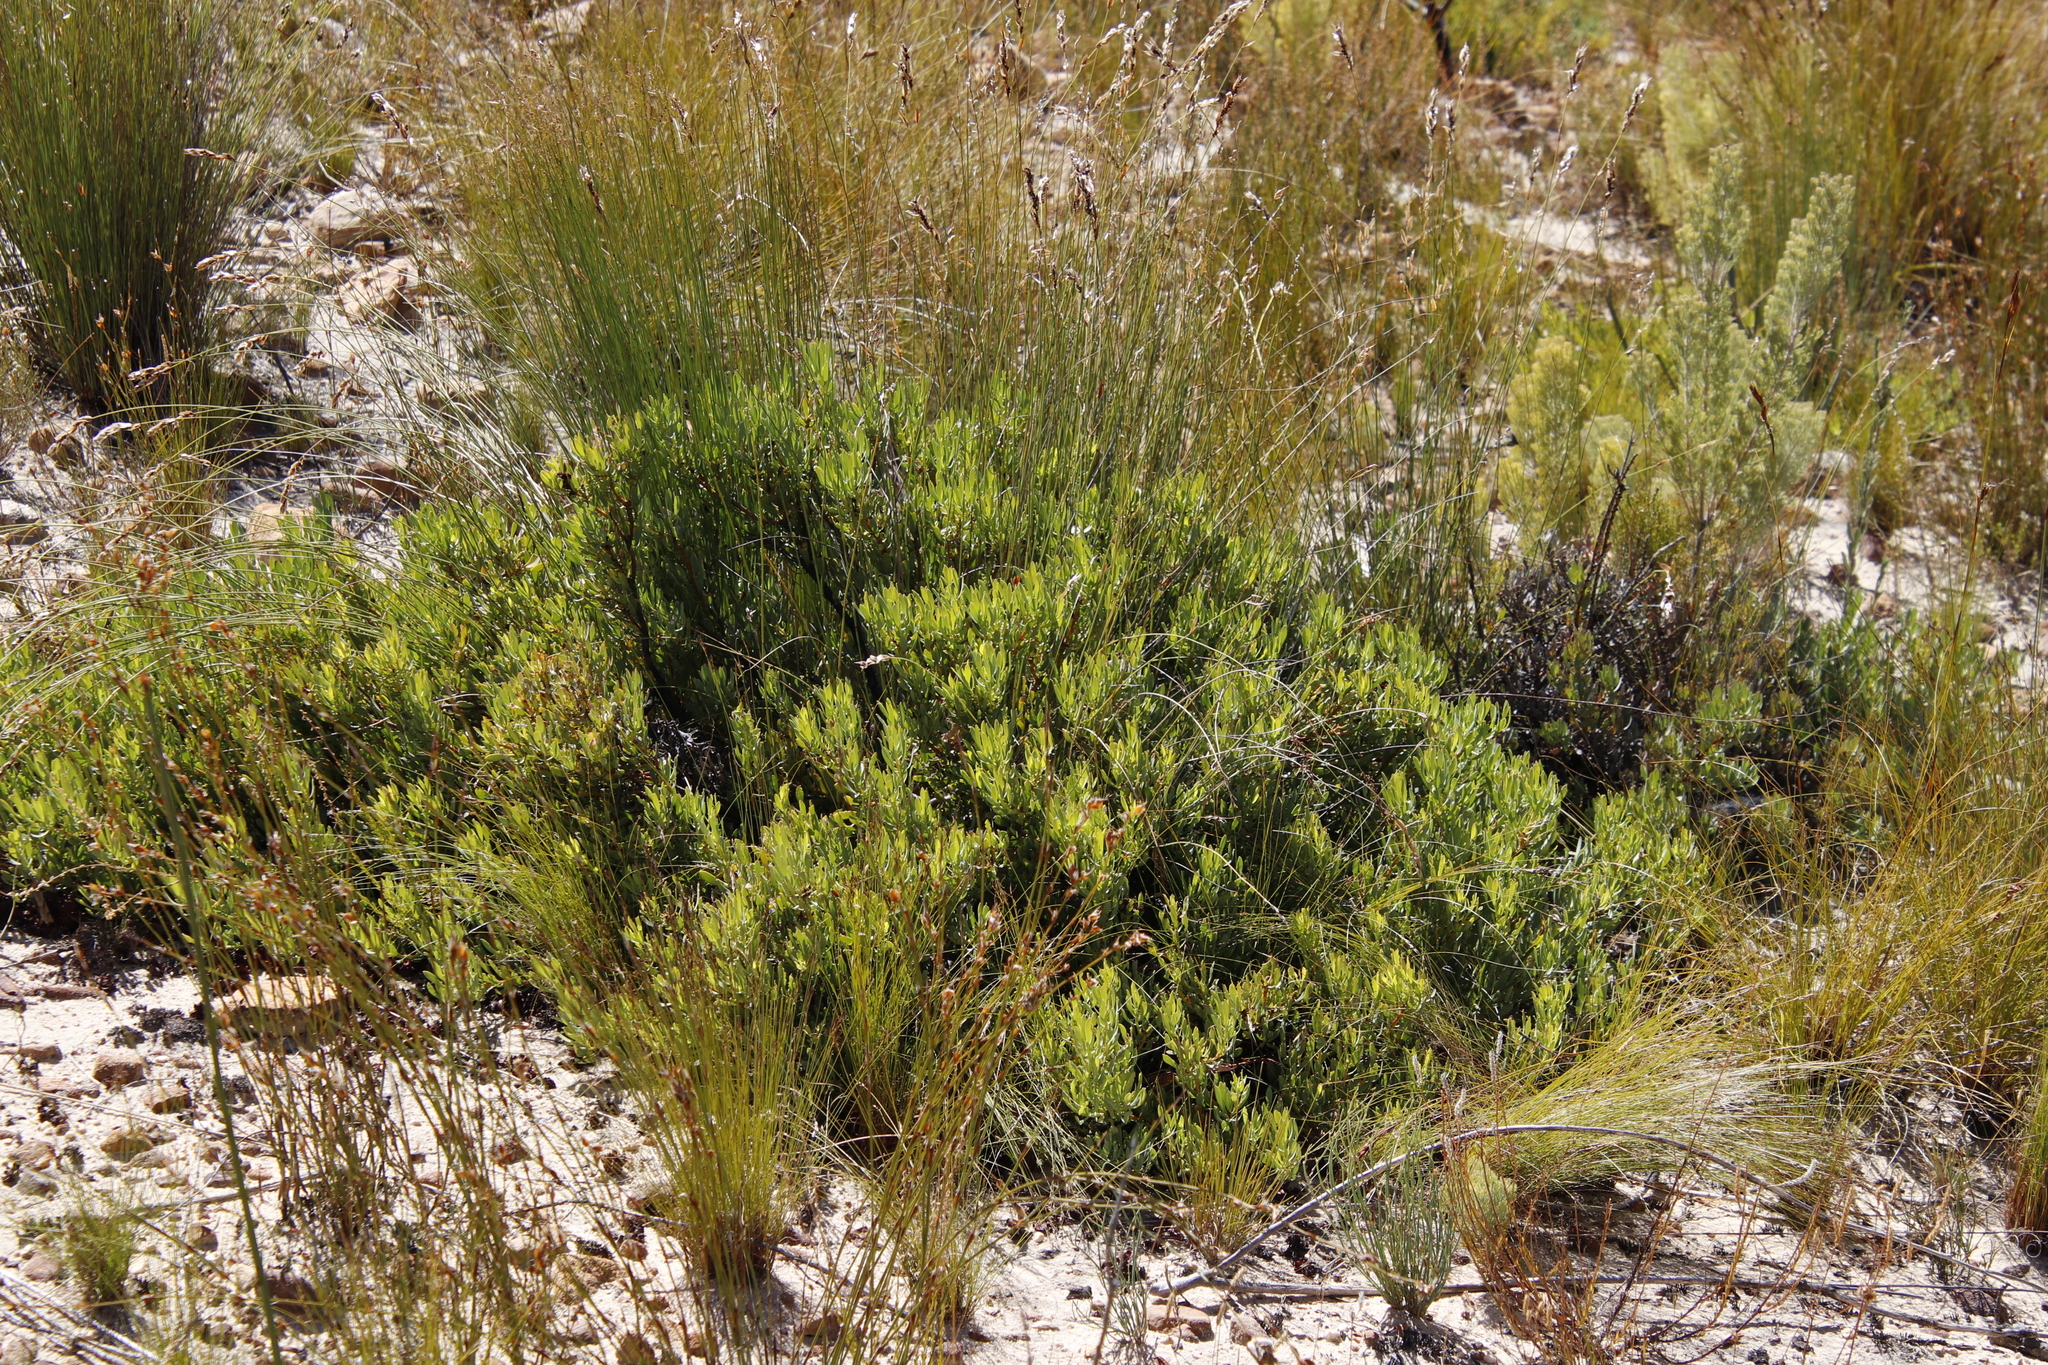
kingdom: Plantae
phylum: Tracheophyta
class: Magnoliopsida
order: Proteales
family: Proteaceae
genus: Leucadendron
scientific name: Leucadendron glaberrimum
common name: Common oily conebush
